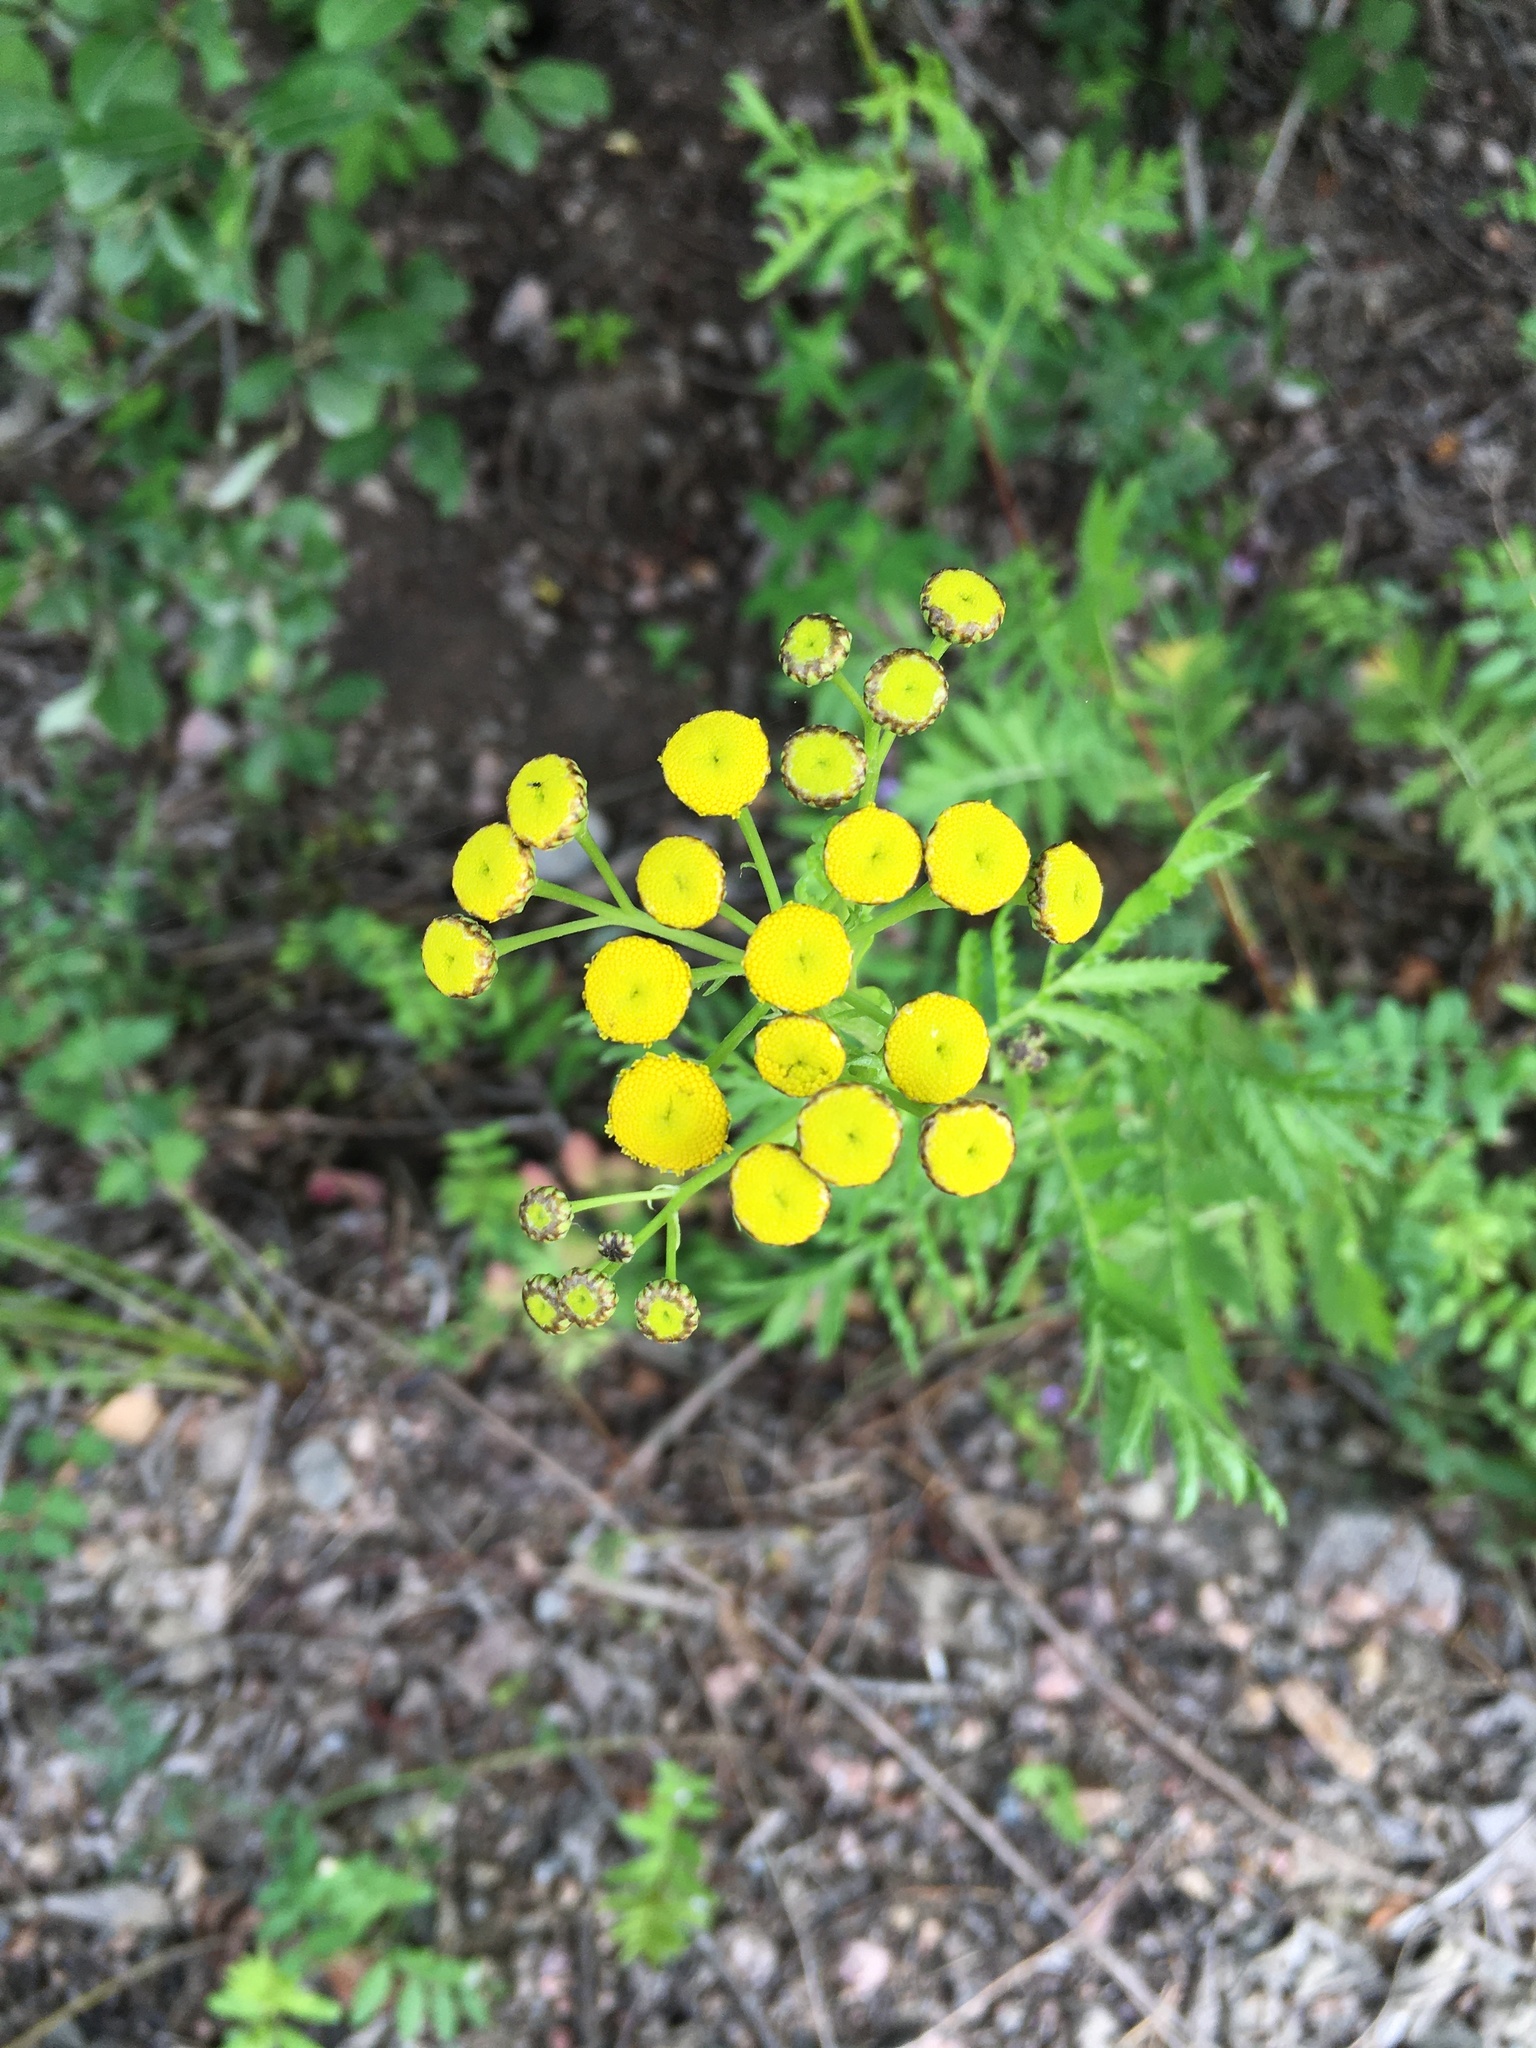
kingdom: Plantae
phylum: Tracheophyta
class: Magnoliopsida
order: Asterales
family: Asteraceae
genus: Tanacetum
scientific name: Tanacetum vulgare
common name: Common tansy
